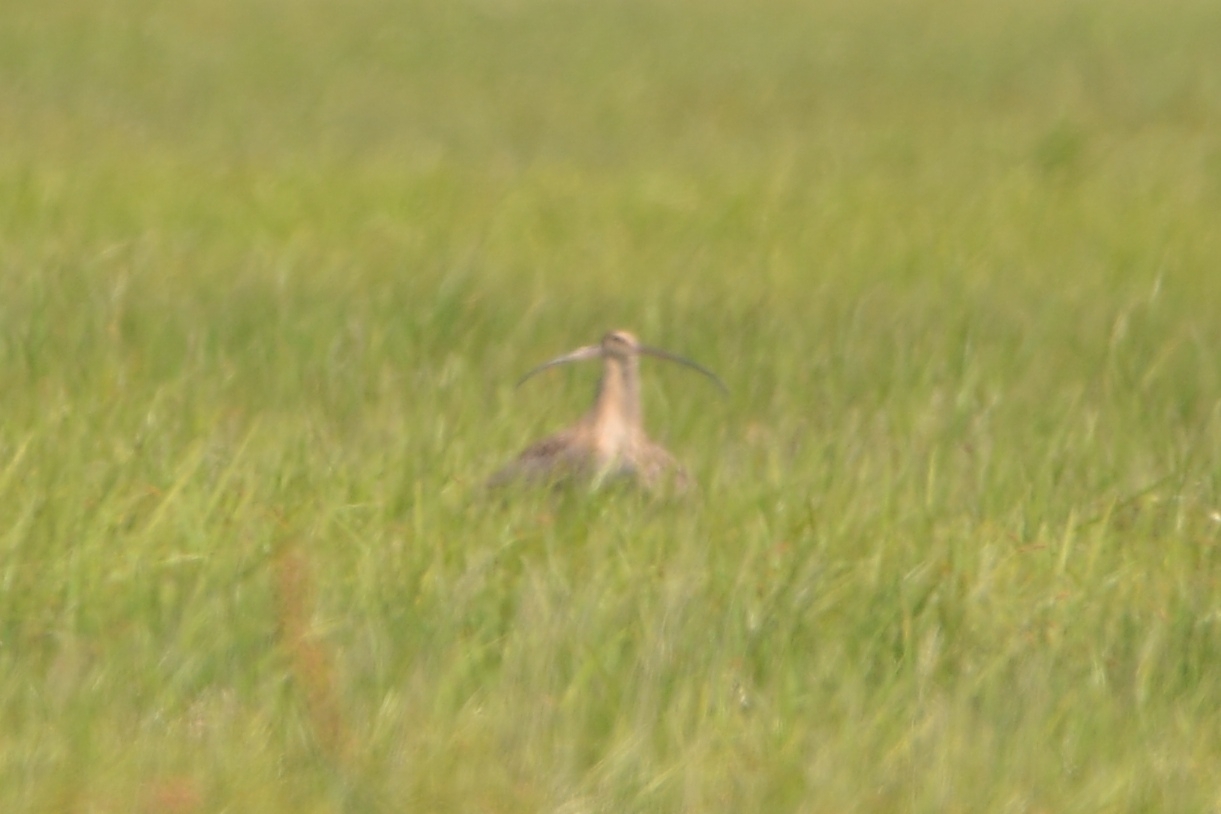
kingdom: Animalia
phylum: Chordata
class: Aves
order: Charadriiformes
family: Scolopacidae
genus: Numenius
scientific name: Numenius madagascariensis
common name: Far eastern curlew
